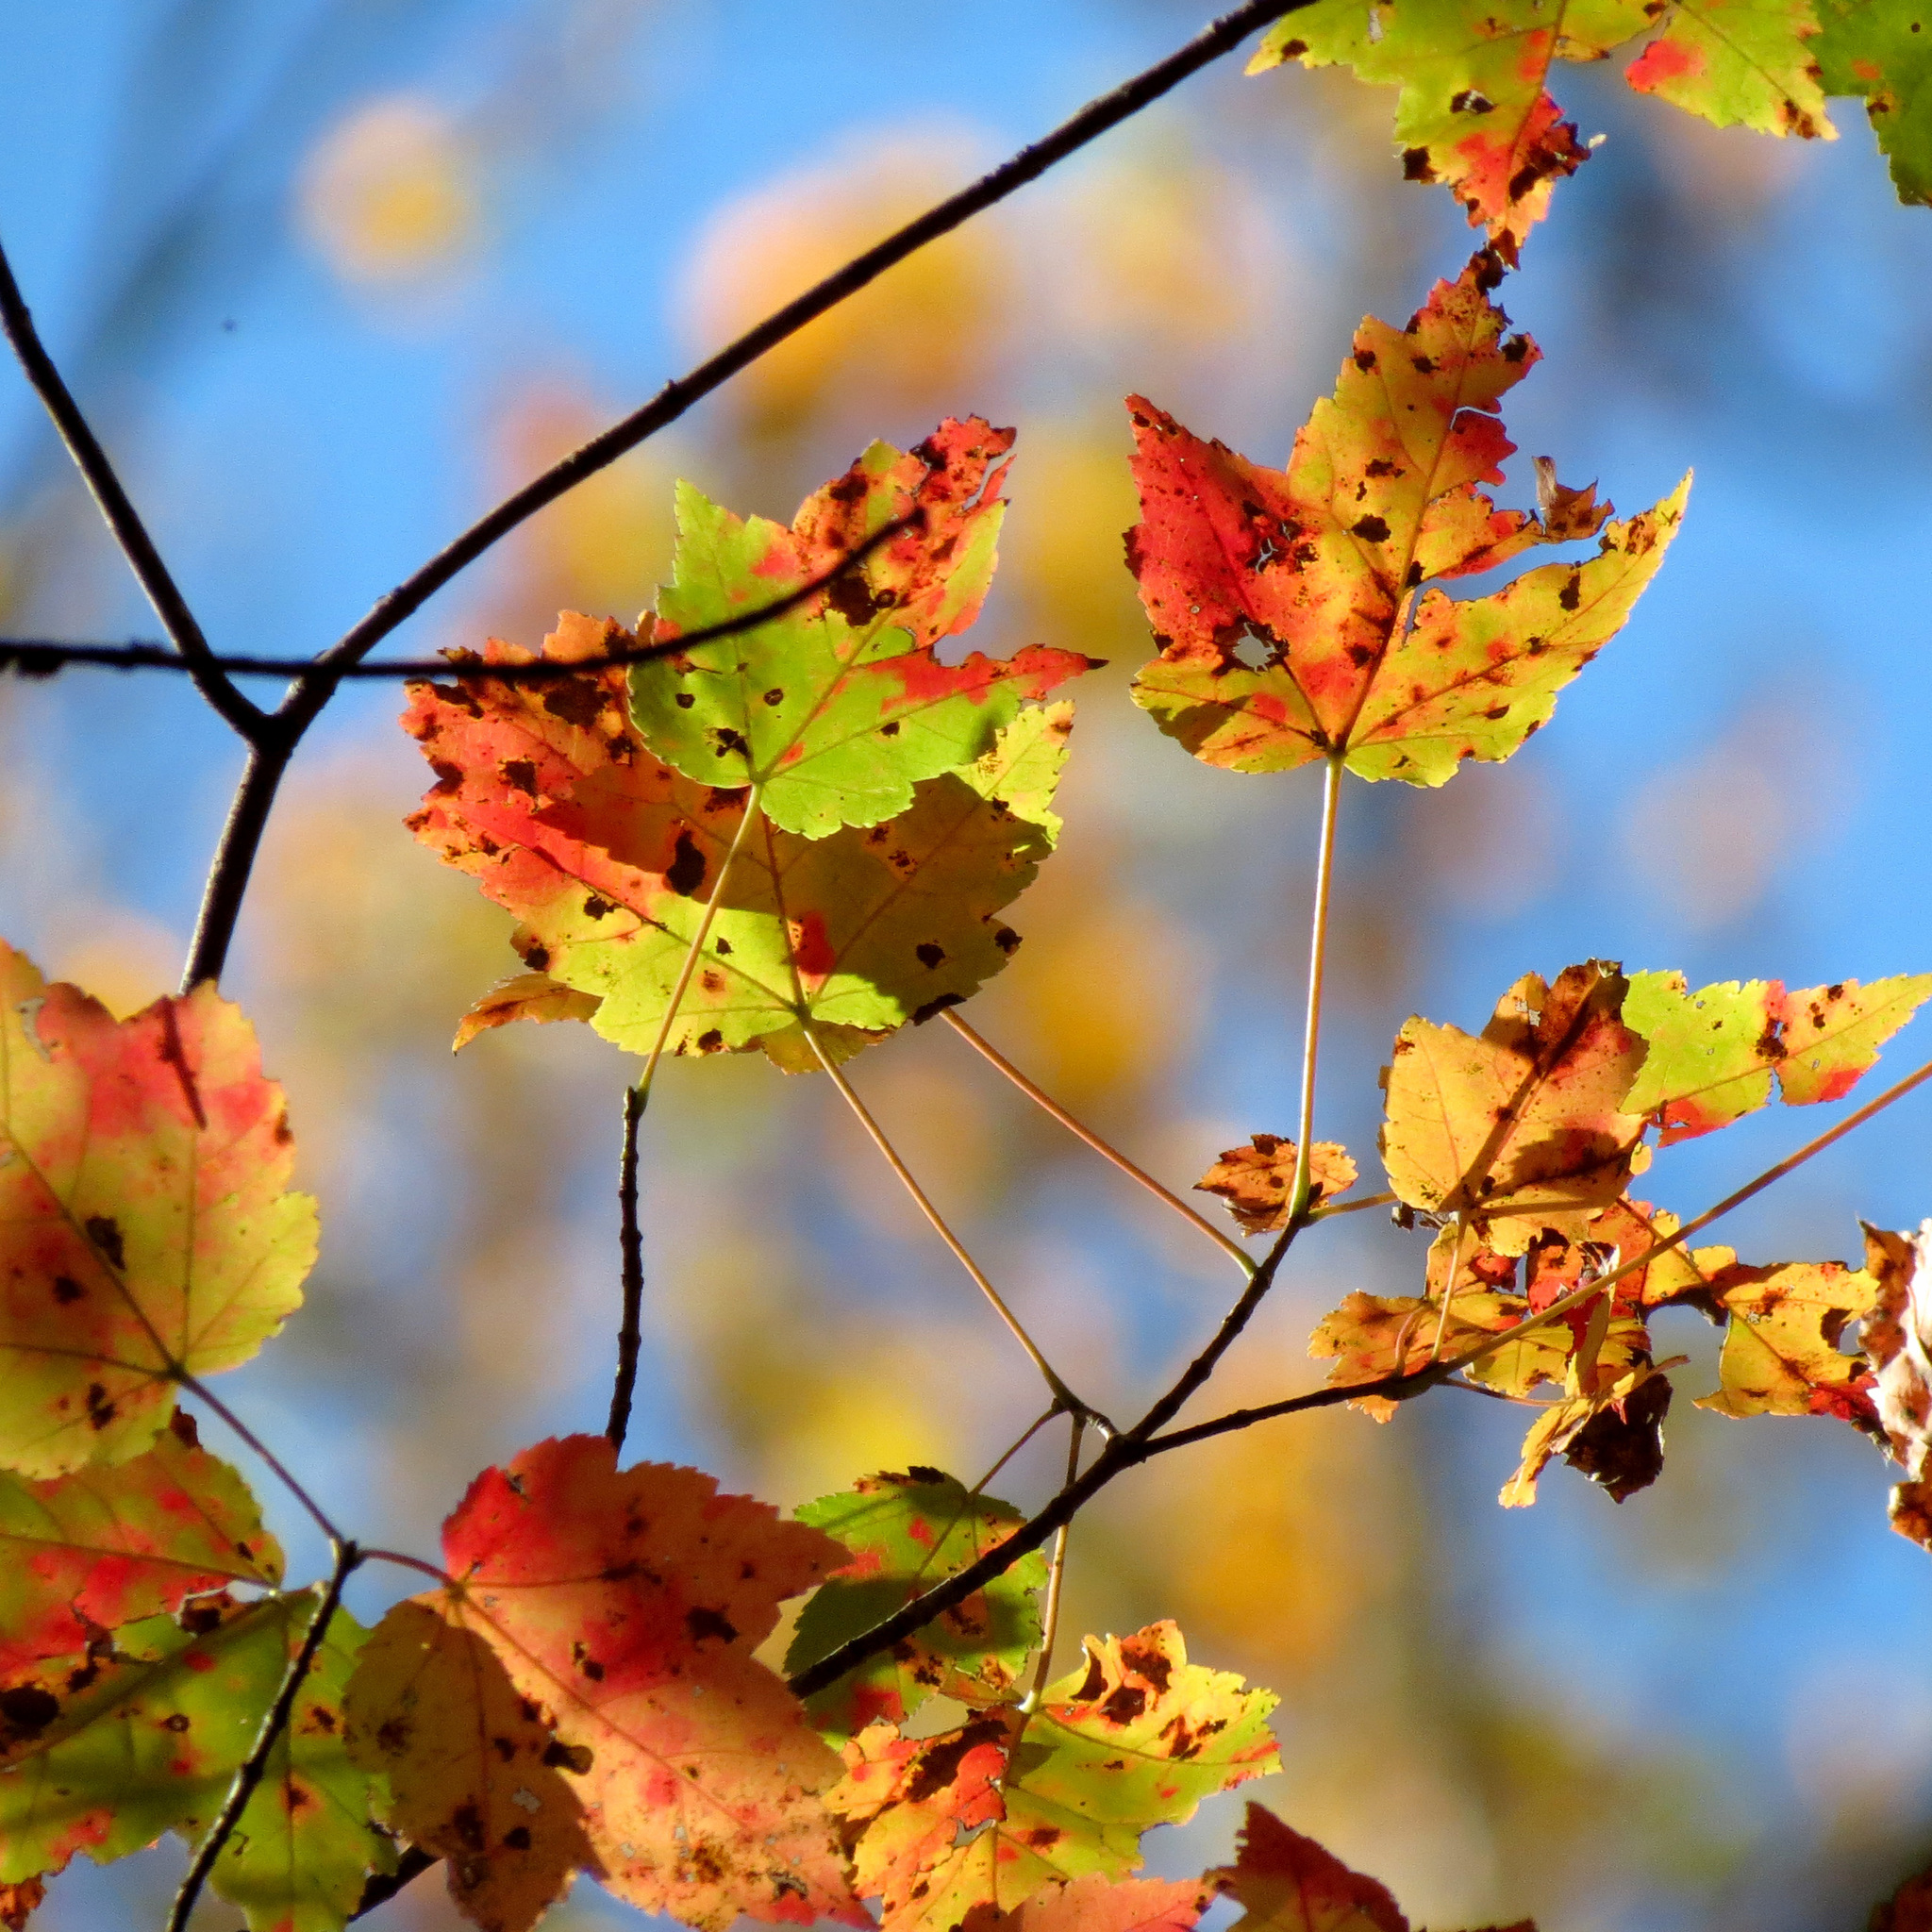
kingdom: Plantae
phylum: Tracheophyta
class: Magnoliopsida
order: Sapindales
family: Sapindaceae
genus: Acer
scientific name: Acer rubrum
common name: Red maple
